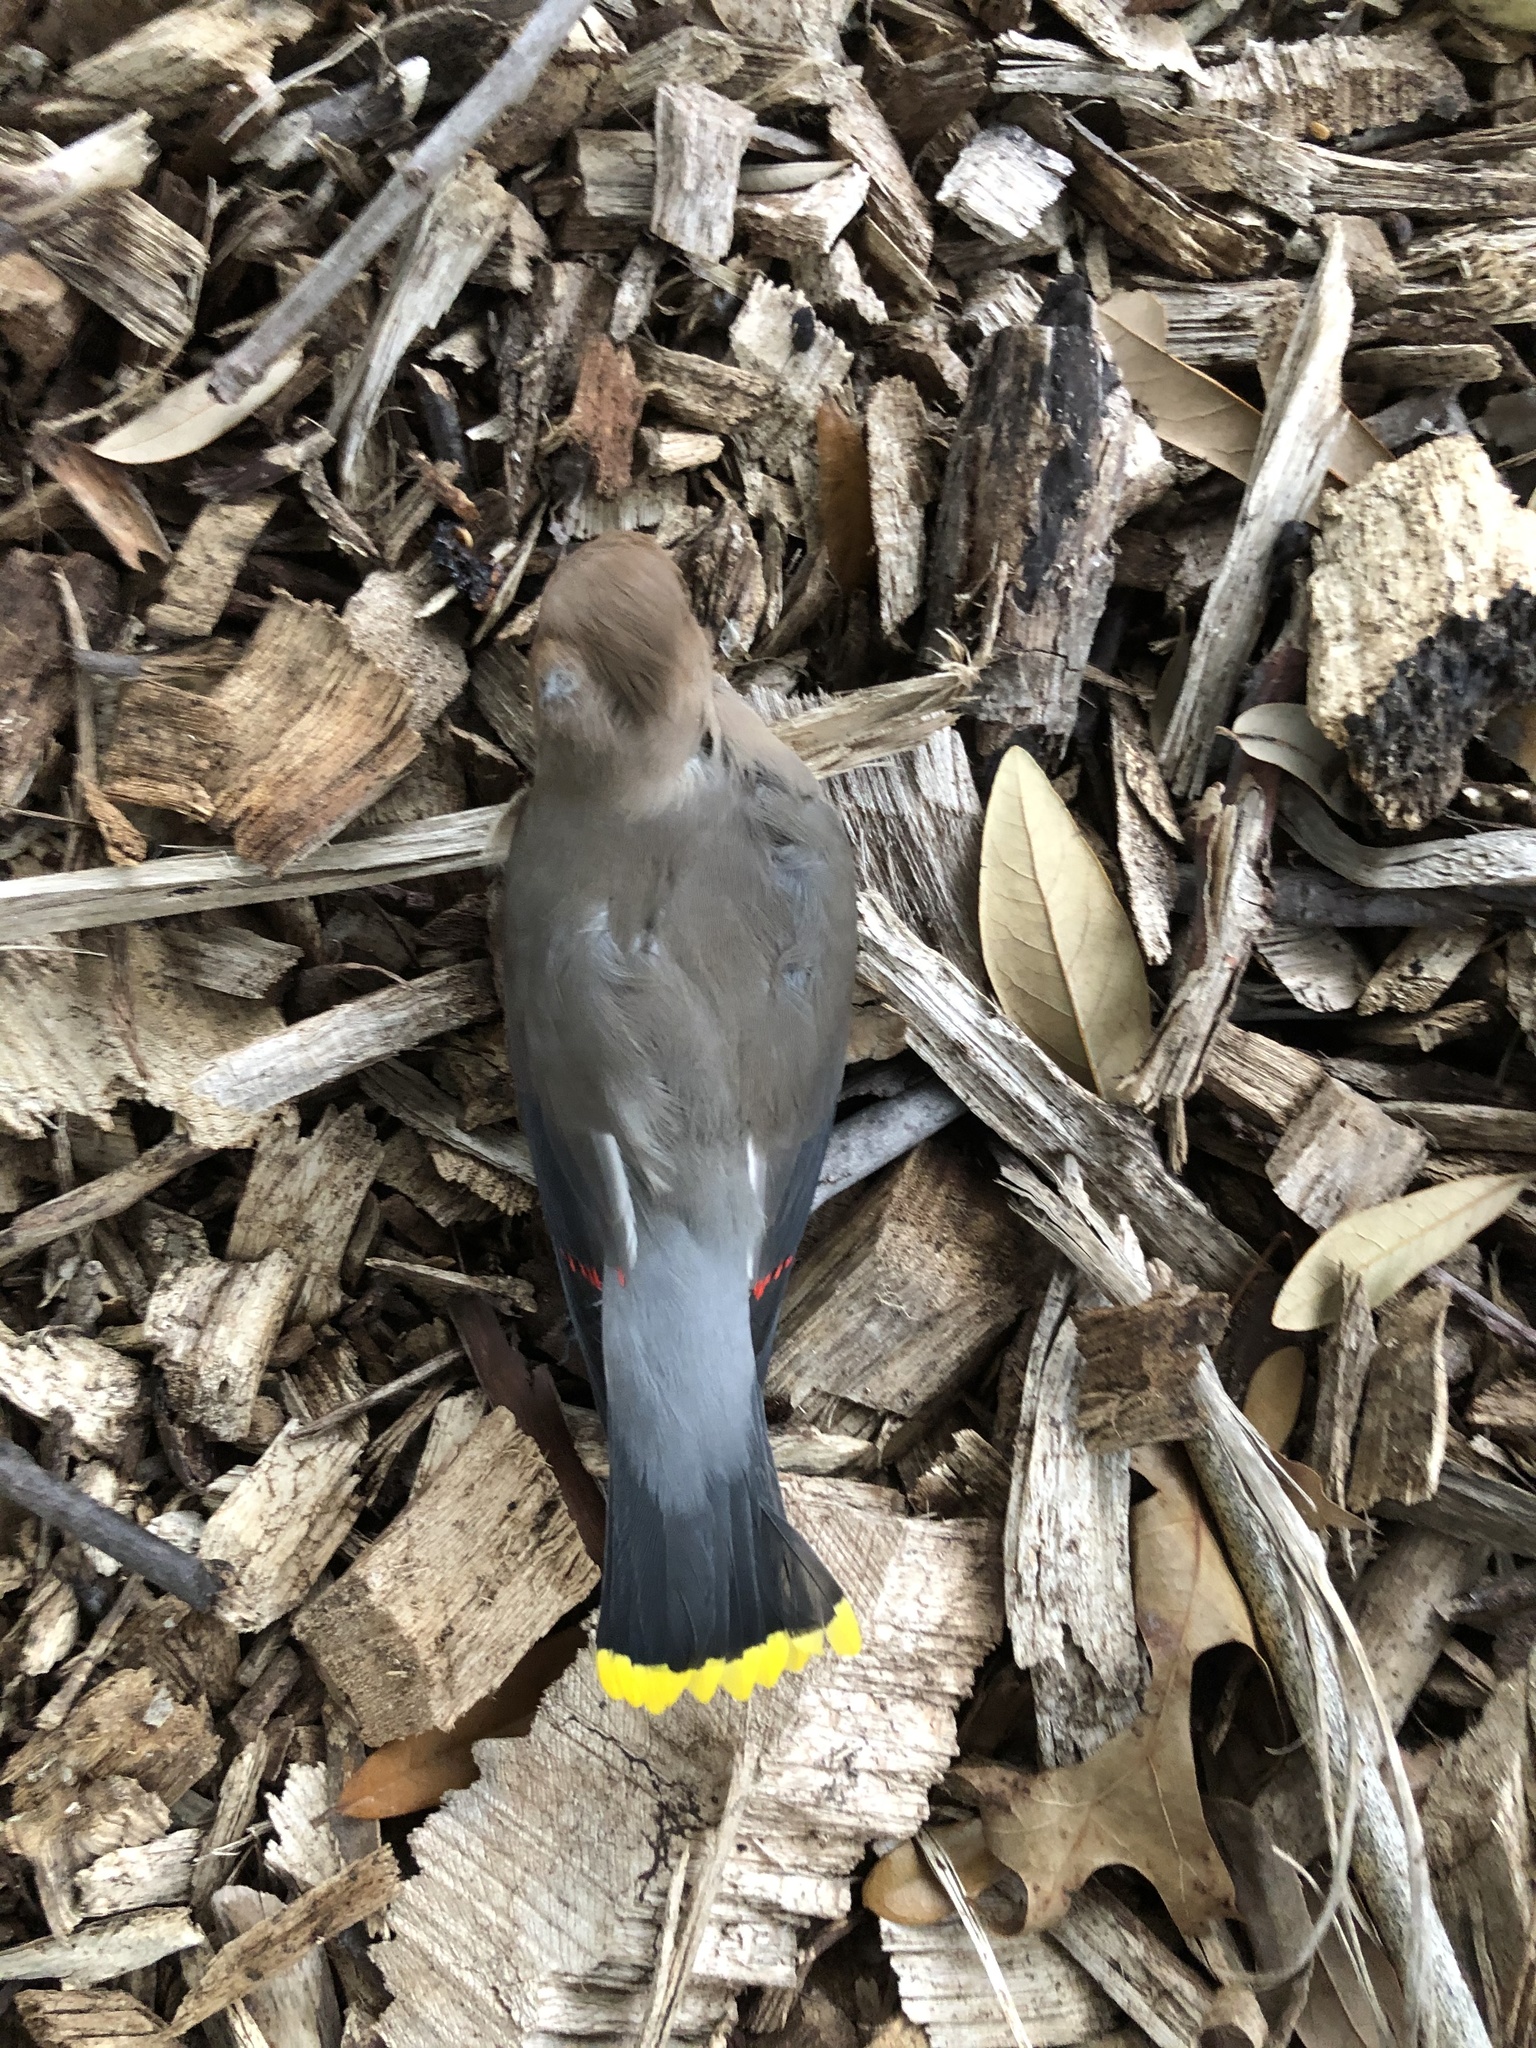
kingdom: Animalia
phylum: Chordata
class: Aves
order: Passeriformes
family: Bombycillidae
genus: Bombycilla
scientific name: Bombycilla cedrorum
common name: Cedar waxwing
